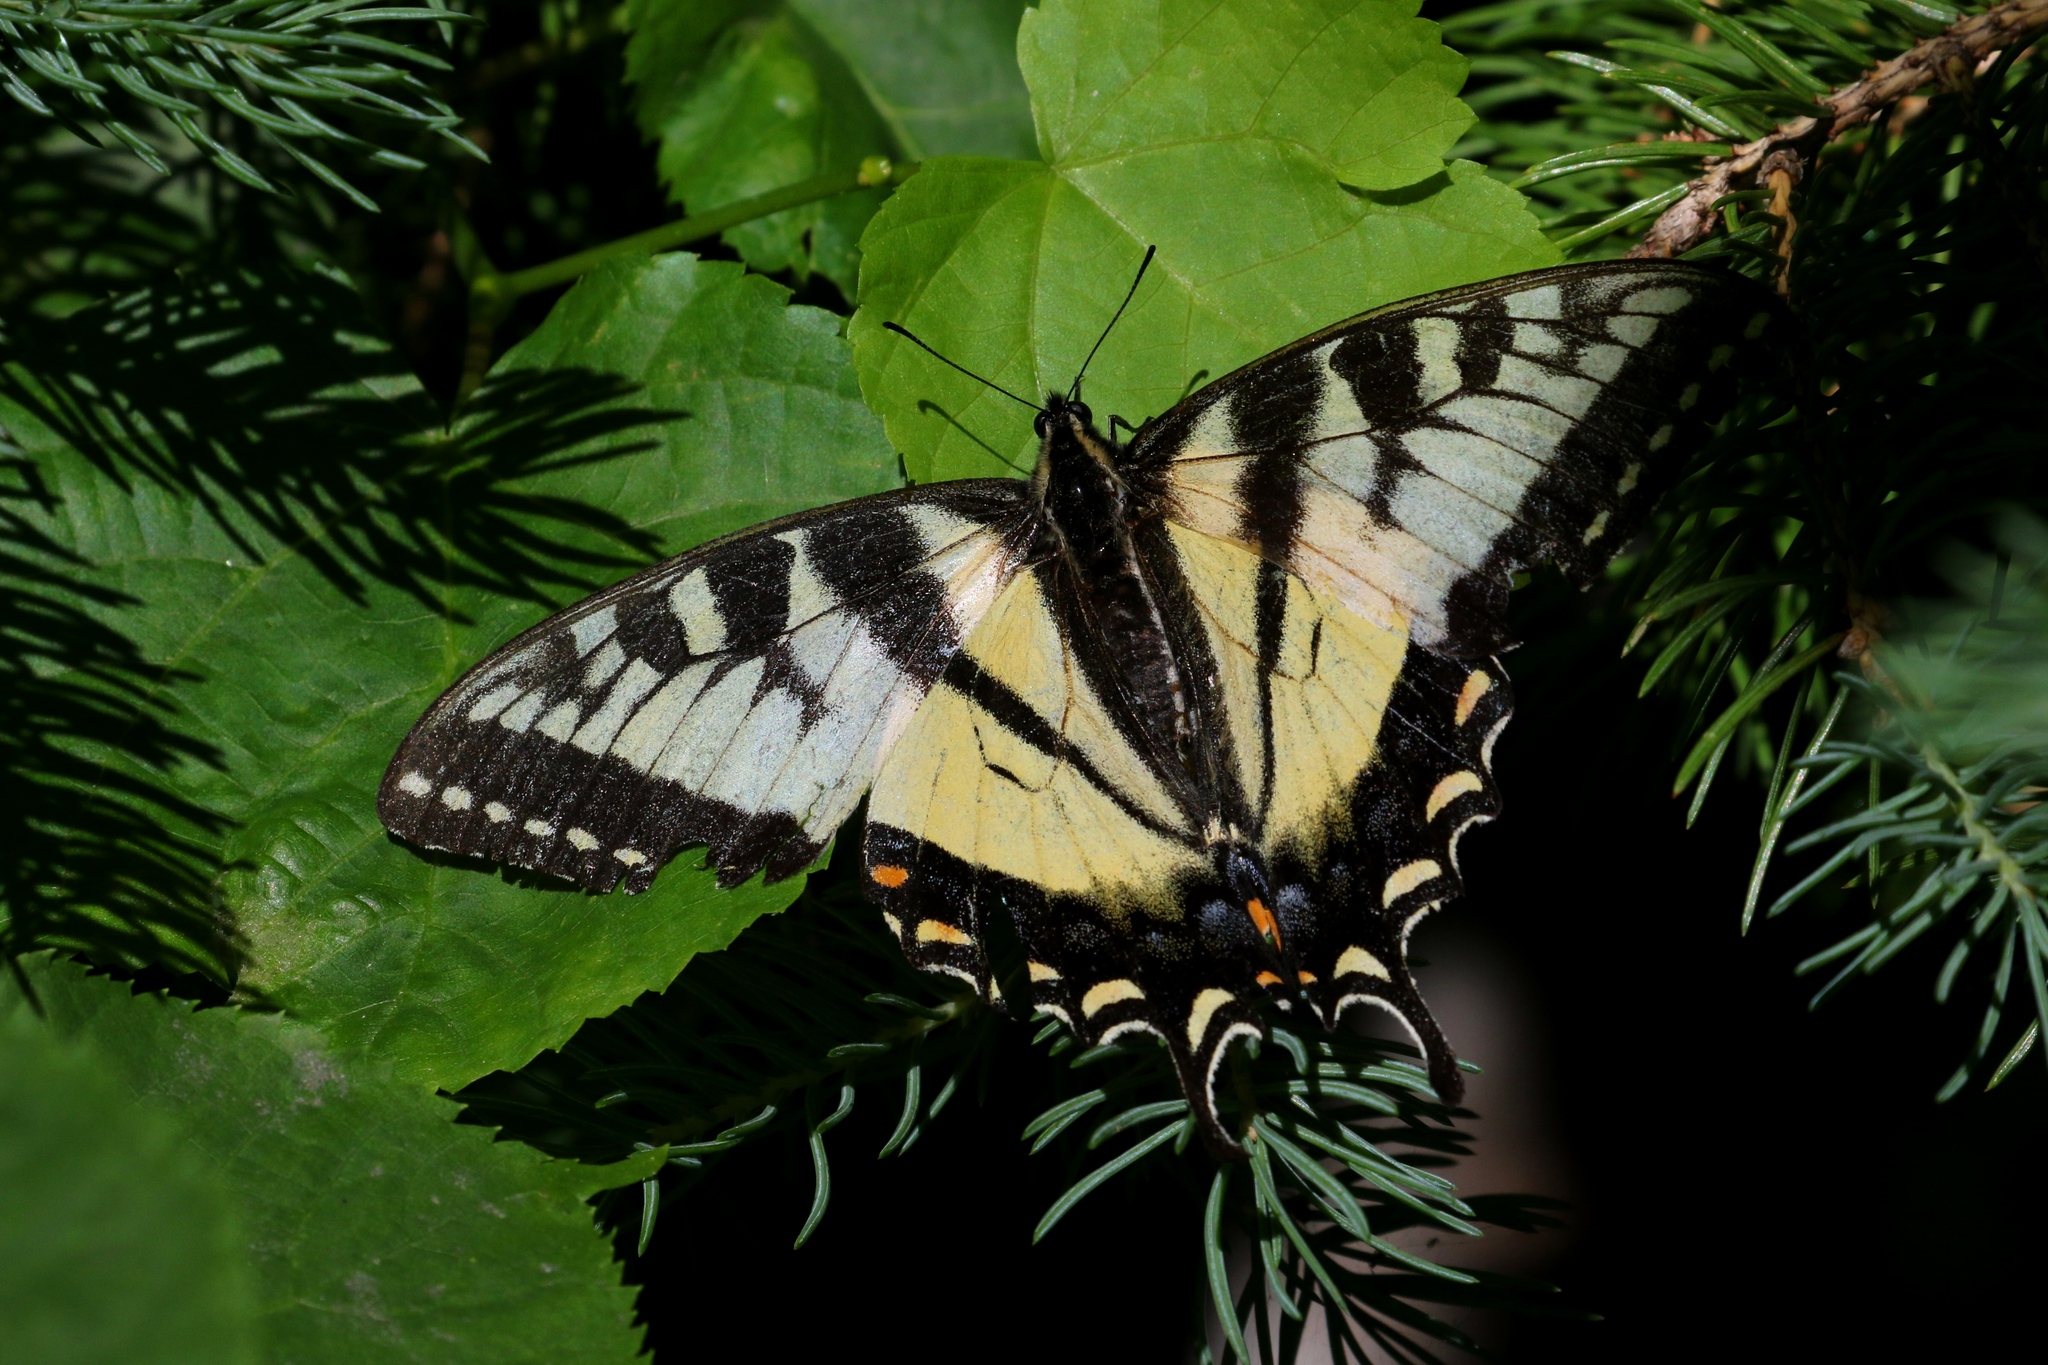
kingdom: Animalia
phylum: Arthropoda
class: Insecta
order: Lepidoptera
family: Papilionidae
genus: Papilio
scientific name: Papilio canadensis
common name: Canadian tiger swallowtail
